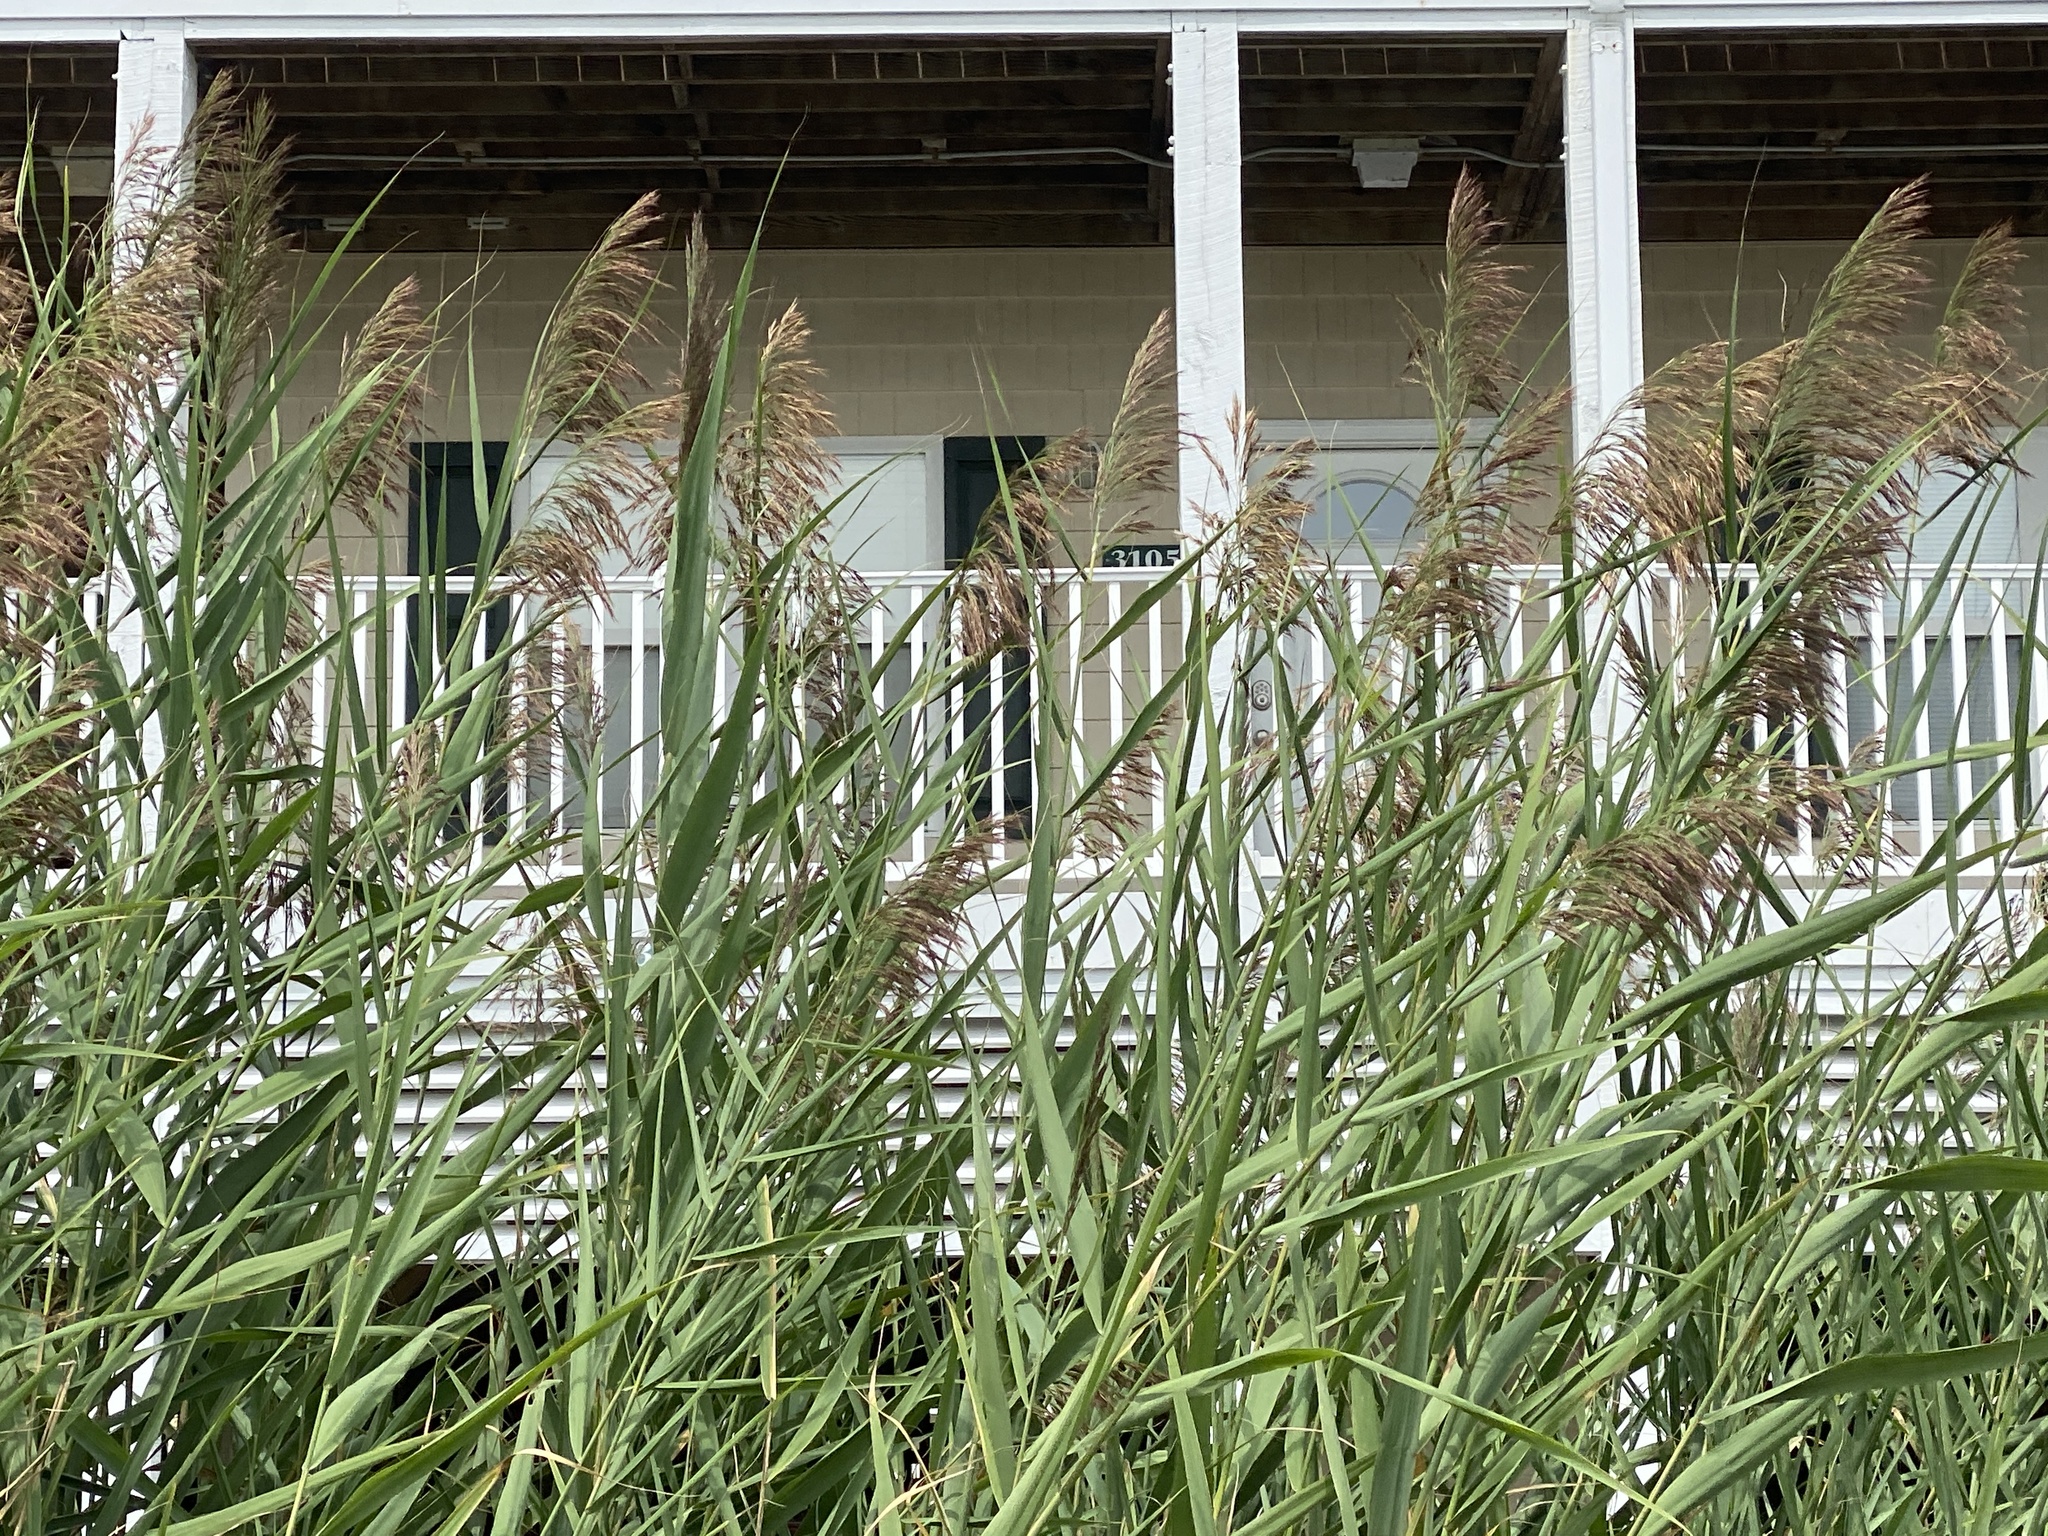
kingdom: Plantae
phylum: Tracheophyta
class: Liliopsida
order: Poales
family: Poaceae
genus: Phragmites
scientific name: Phragmites australis
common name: Common reed
